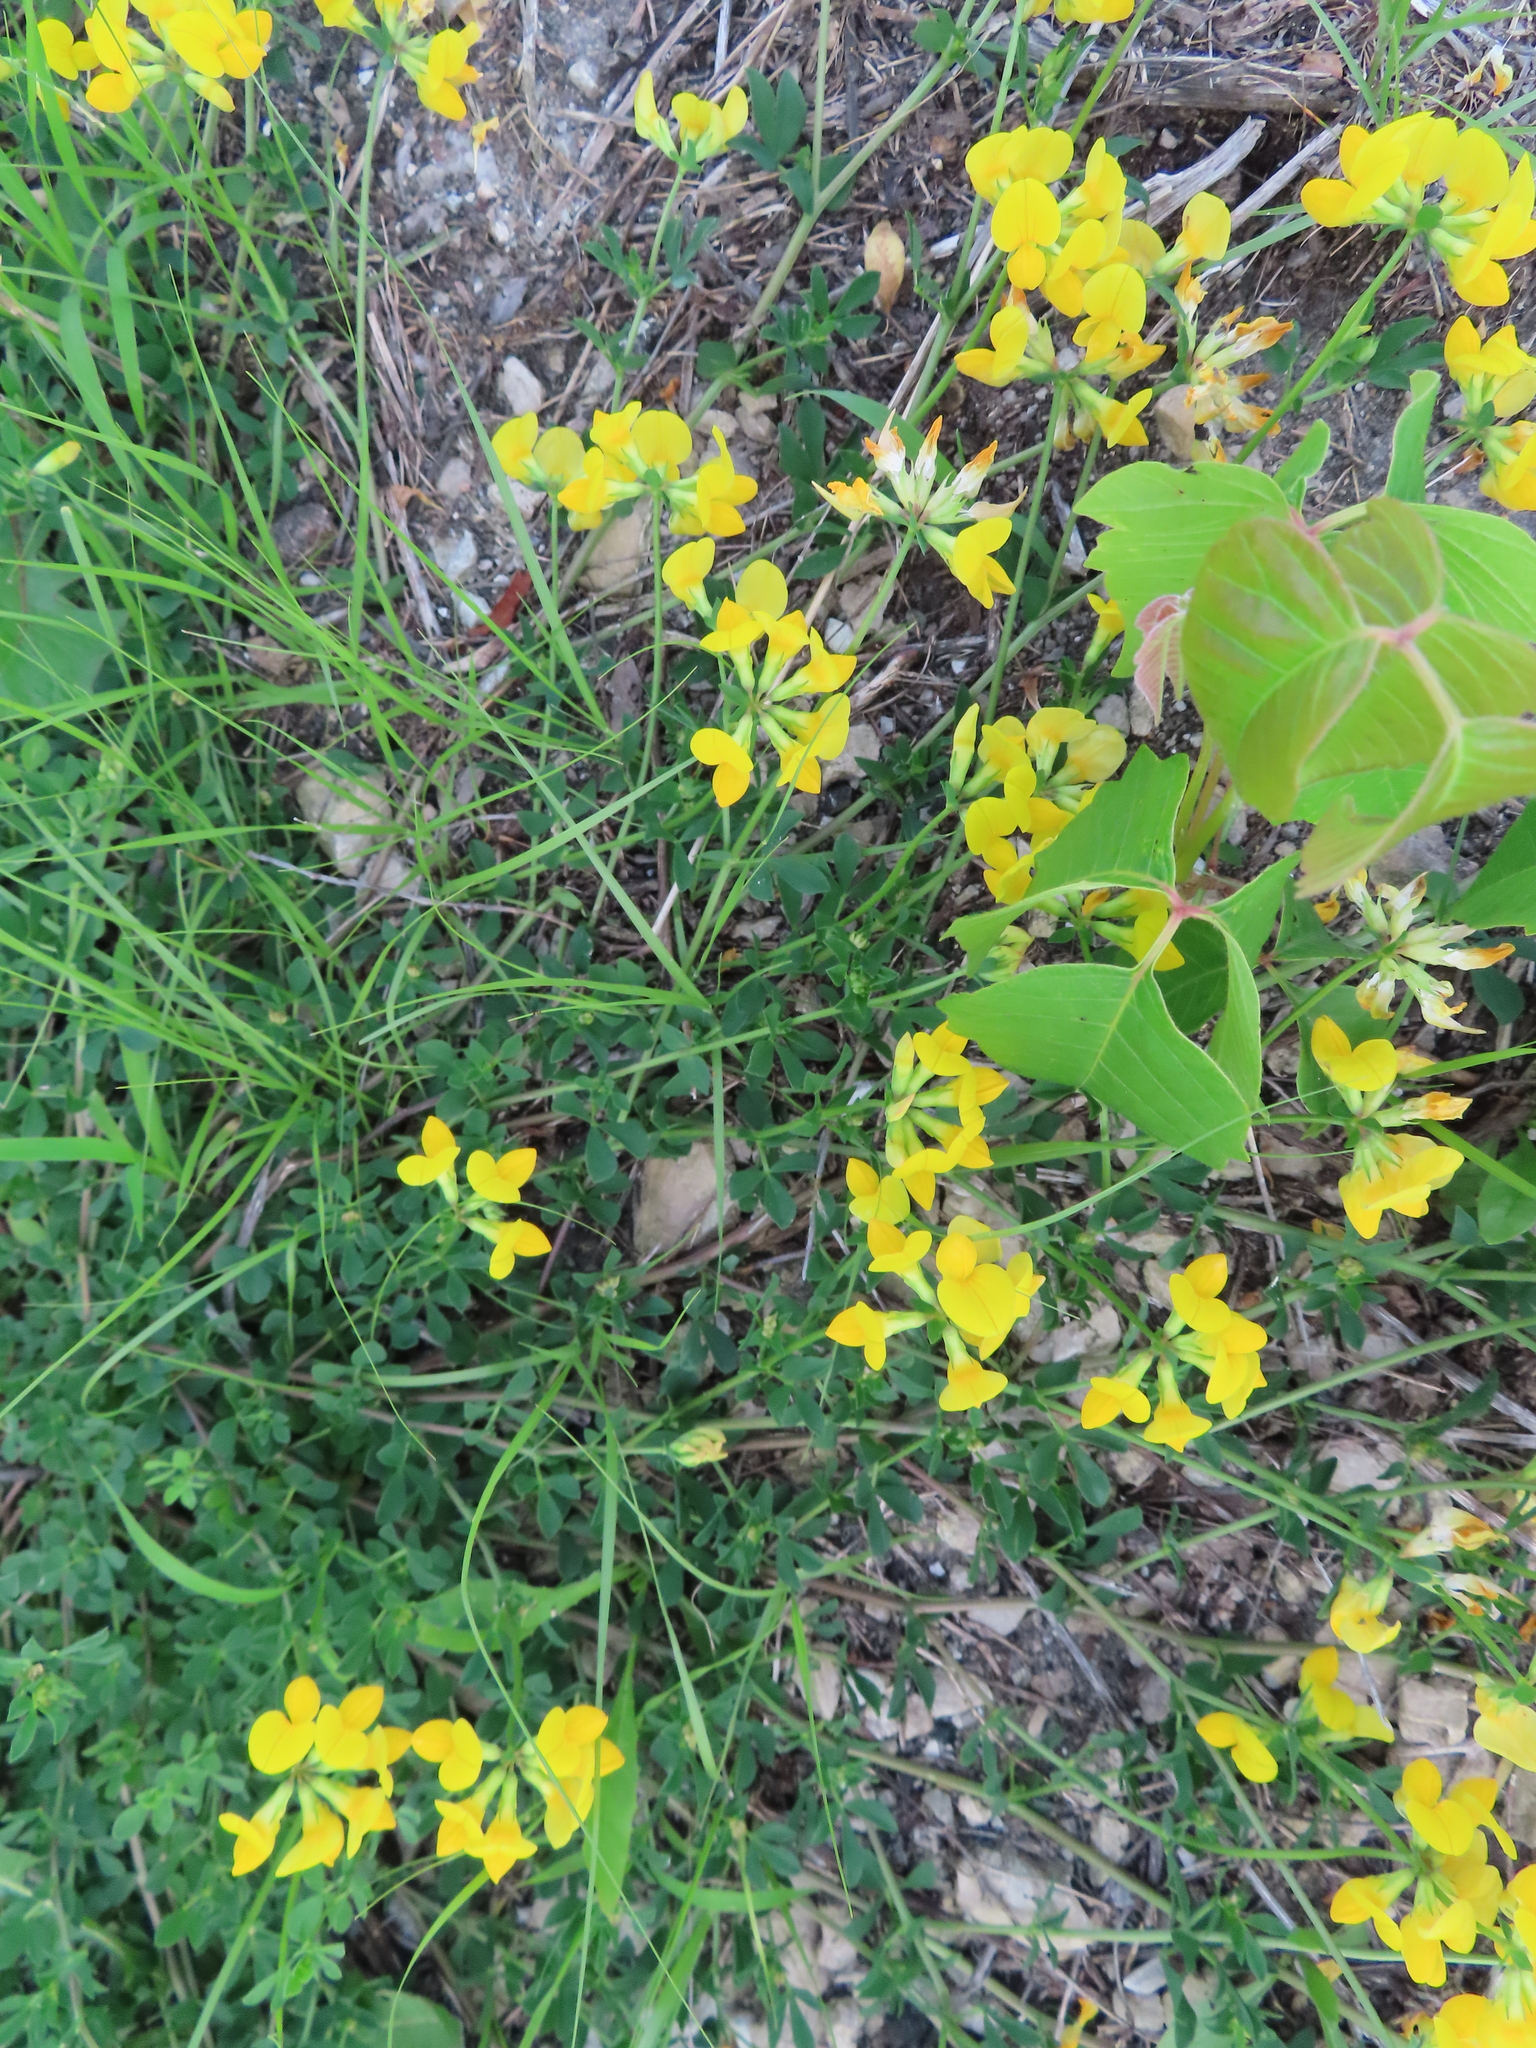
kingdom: Plantae
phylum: Tracheophyta
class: Magnoliopsida
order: Fabales
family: Fabaceae
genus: Lotus
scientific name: Lotus corniculatus
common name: Common bird's-foot-trefoil
